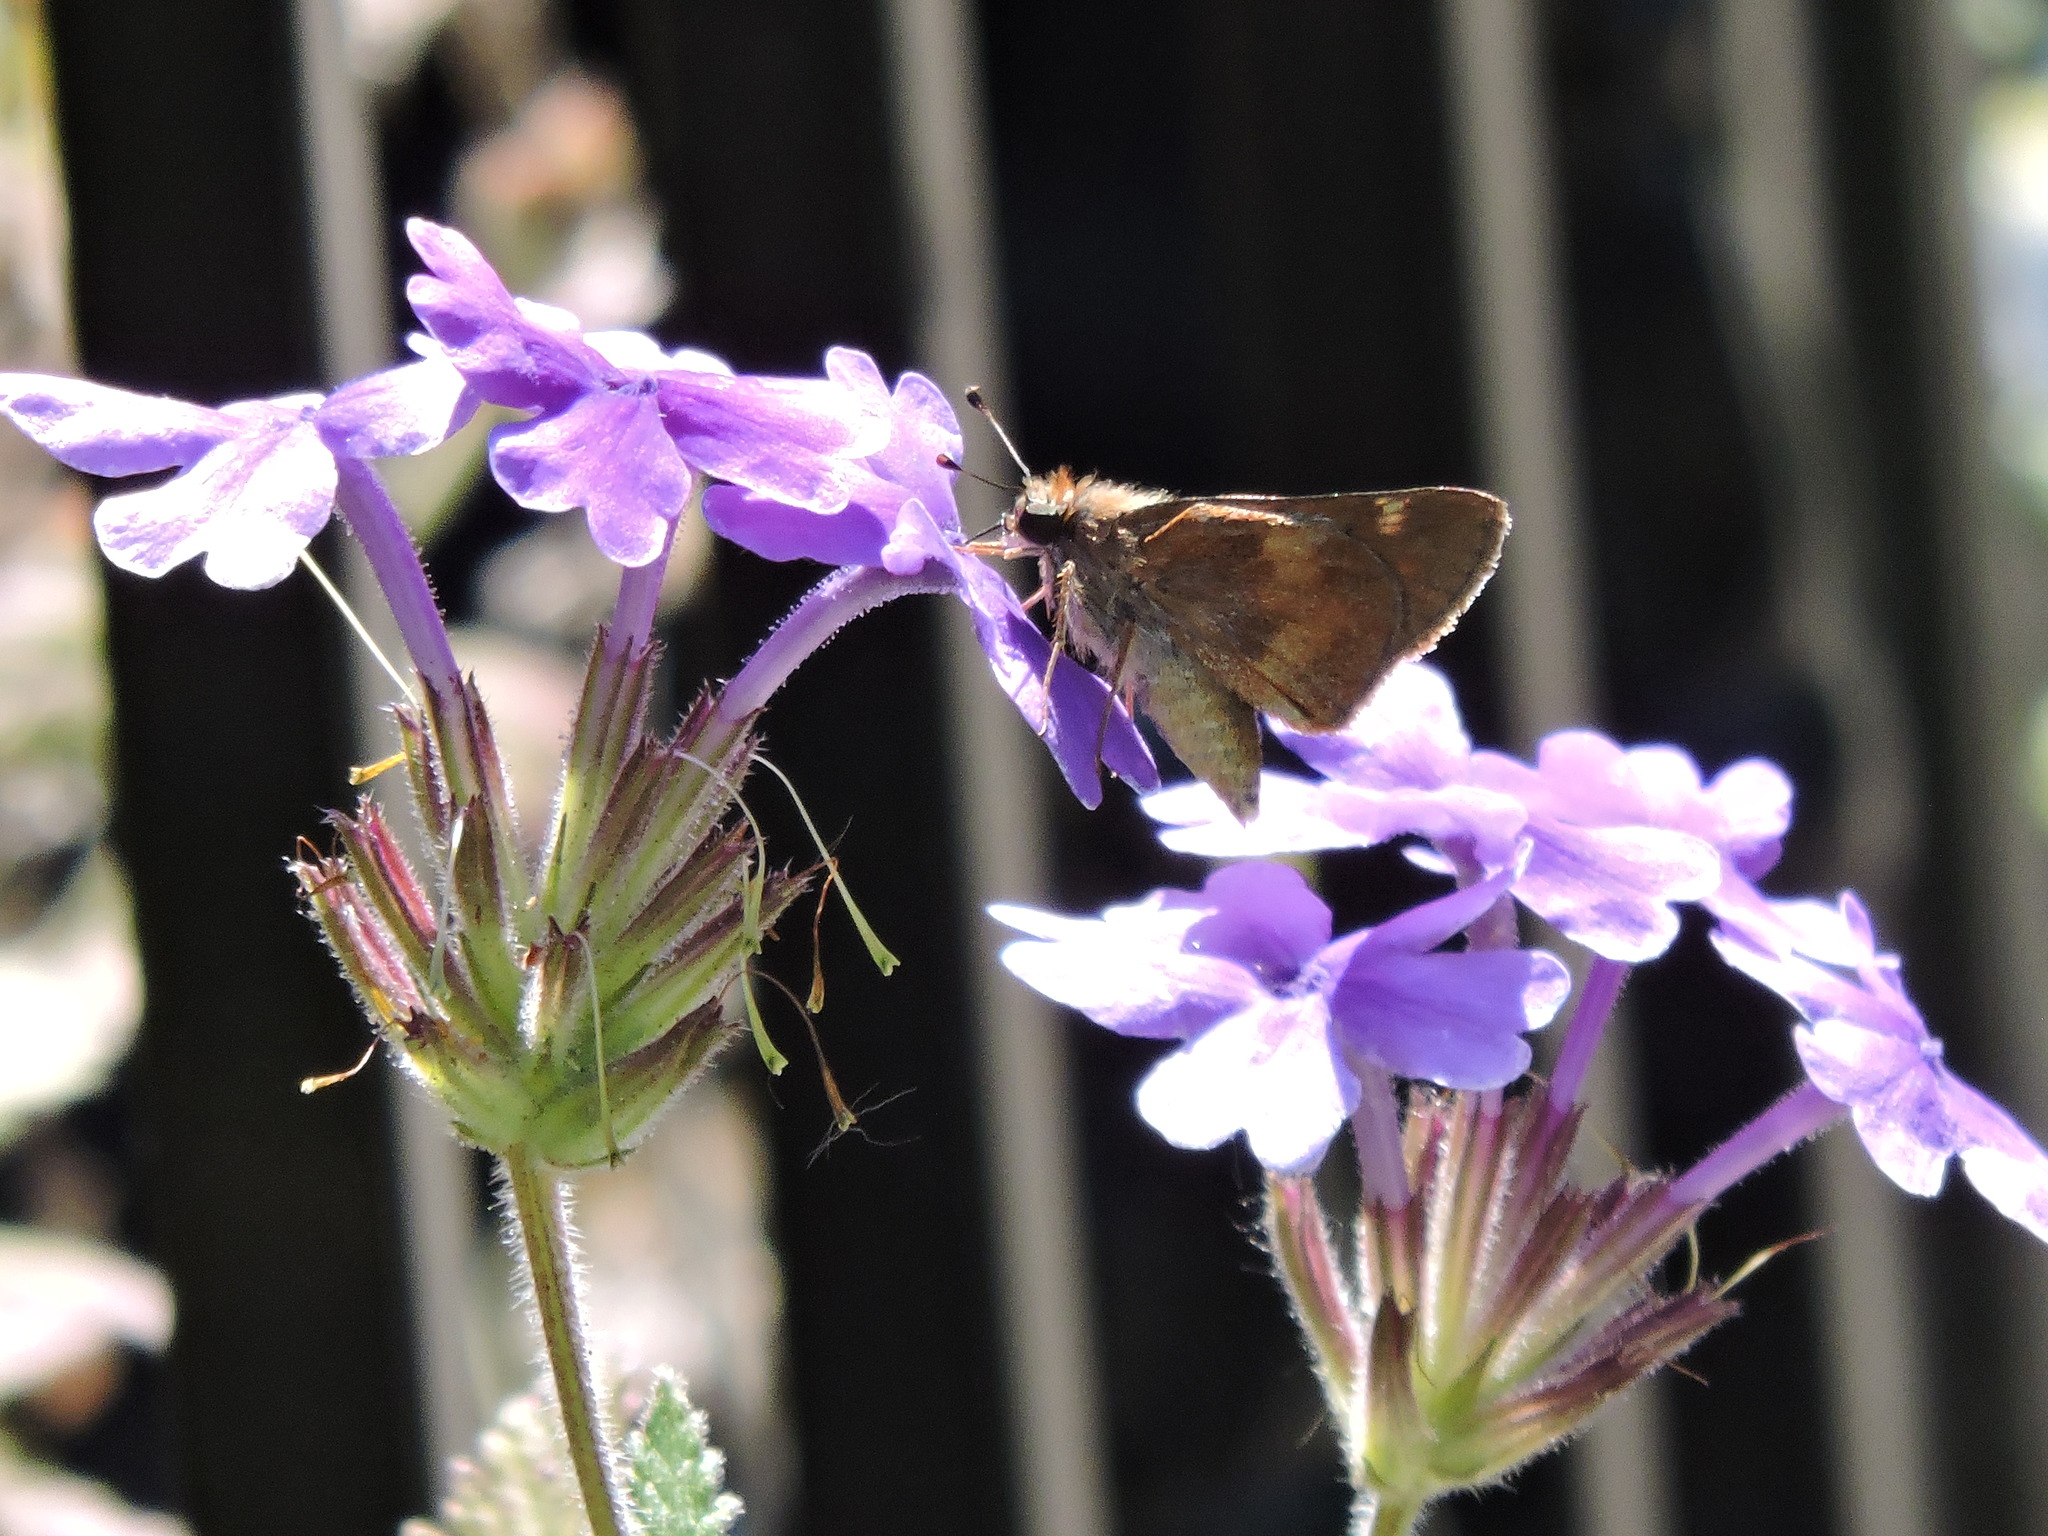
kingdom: Animalia
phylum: Arthropoda
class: Insecta
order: Lepidoptera
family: Hesperiidae
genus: Lon
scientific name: Lon melane
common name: Umber skipper
